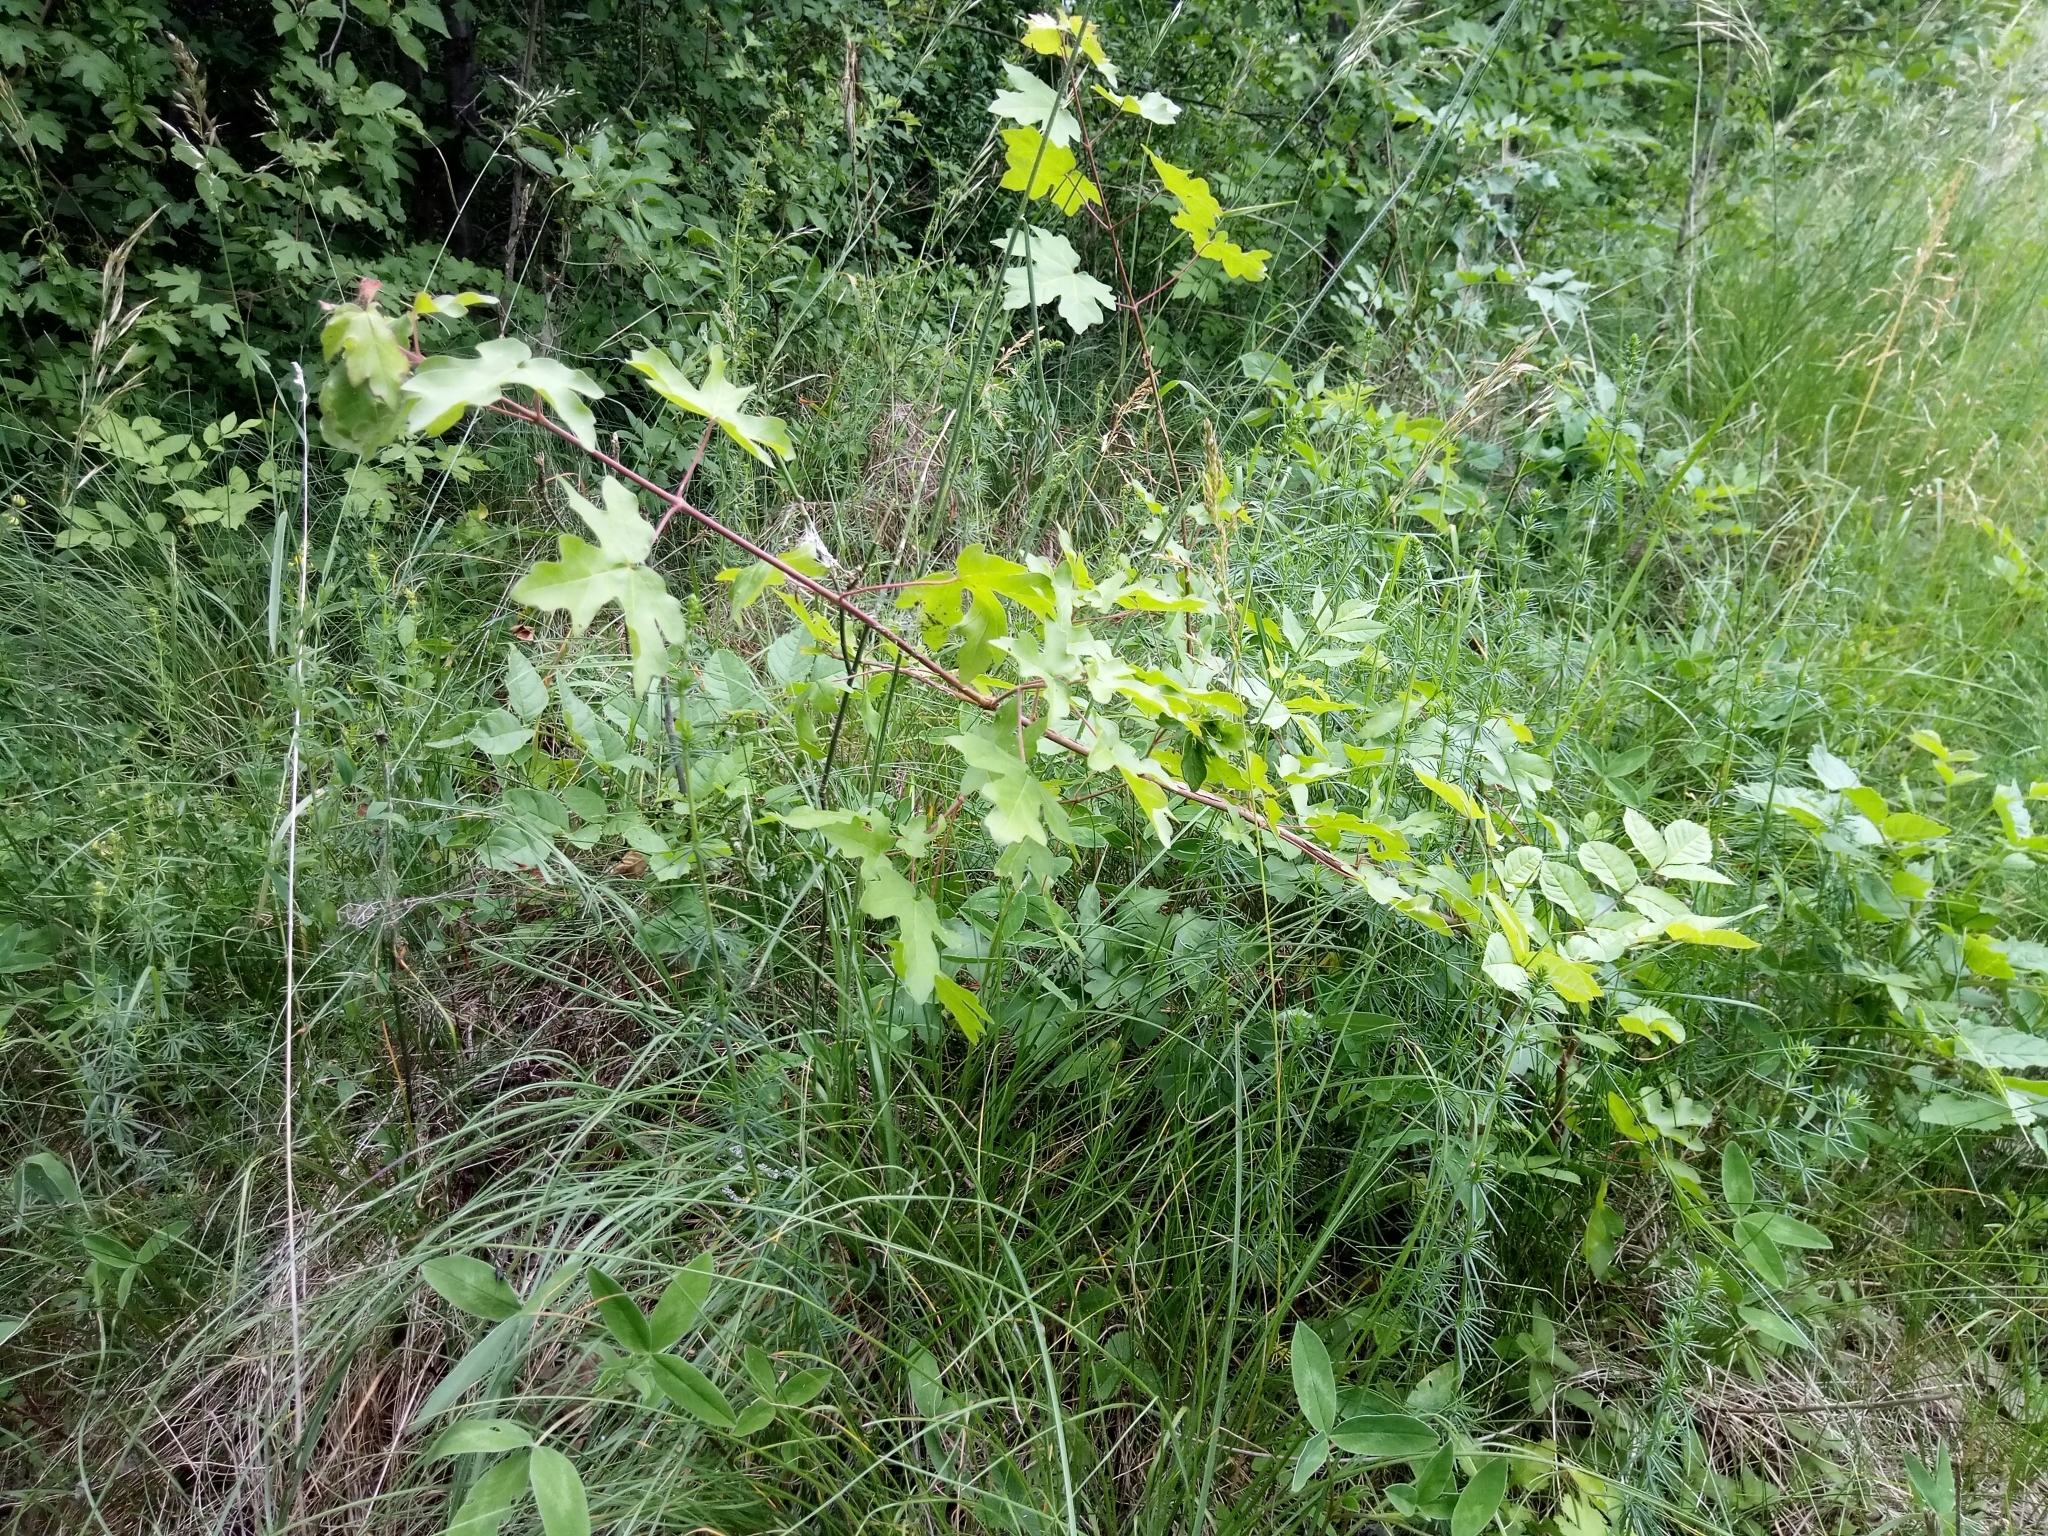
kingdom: Plantae
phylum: Tracheophyta
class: Magnoliopsida
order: Sapindales
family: Sapindaceae
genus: Acer
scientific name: Acer campestre
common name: Field maple
